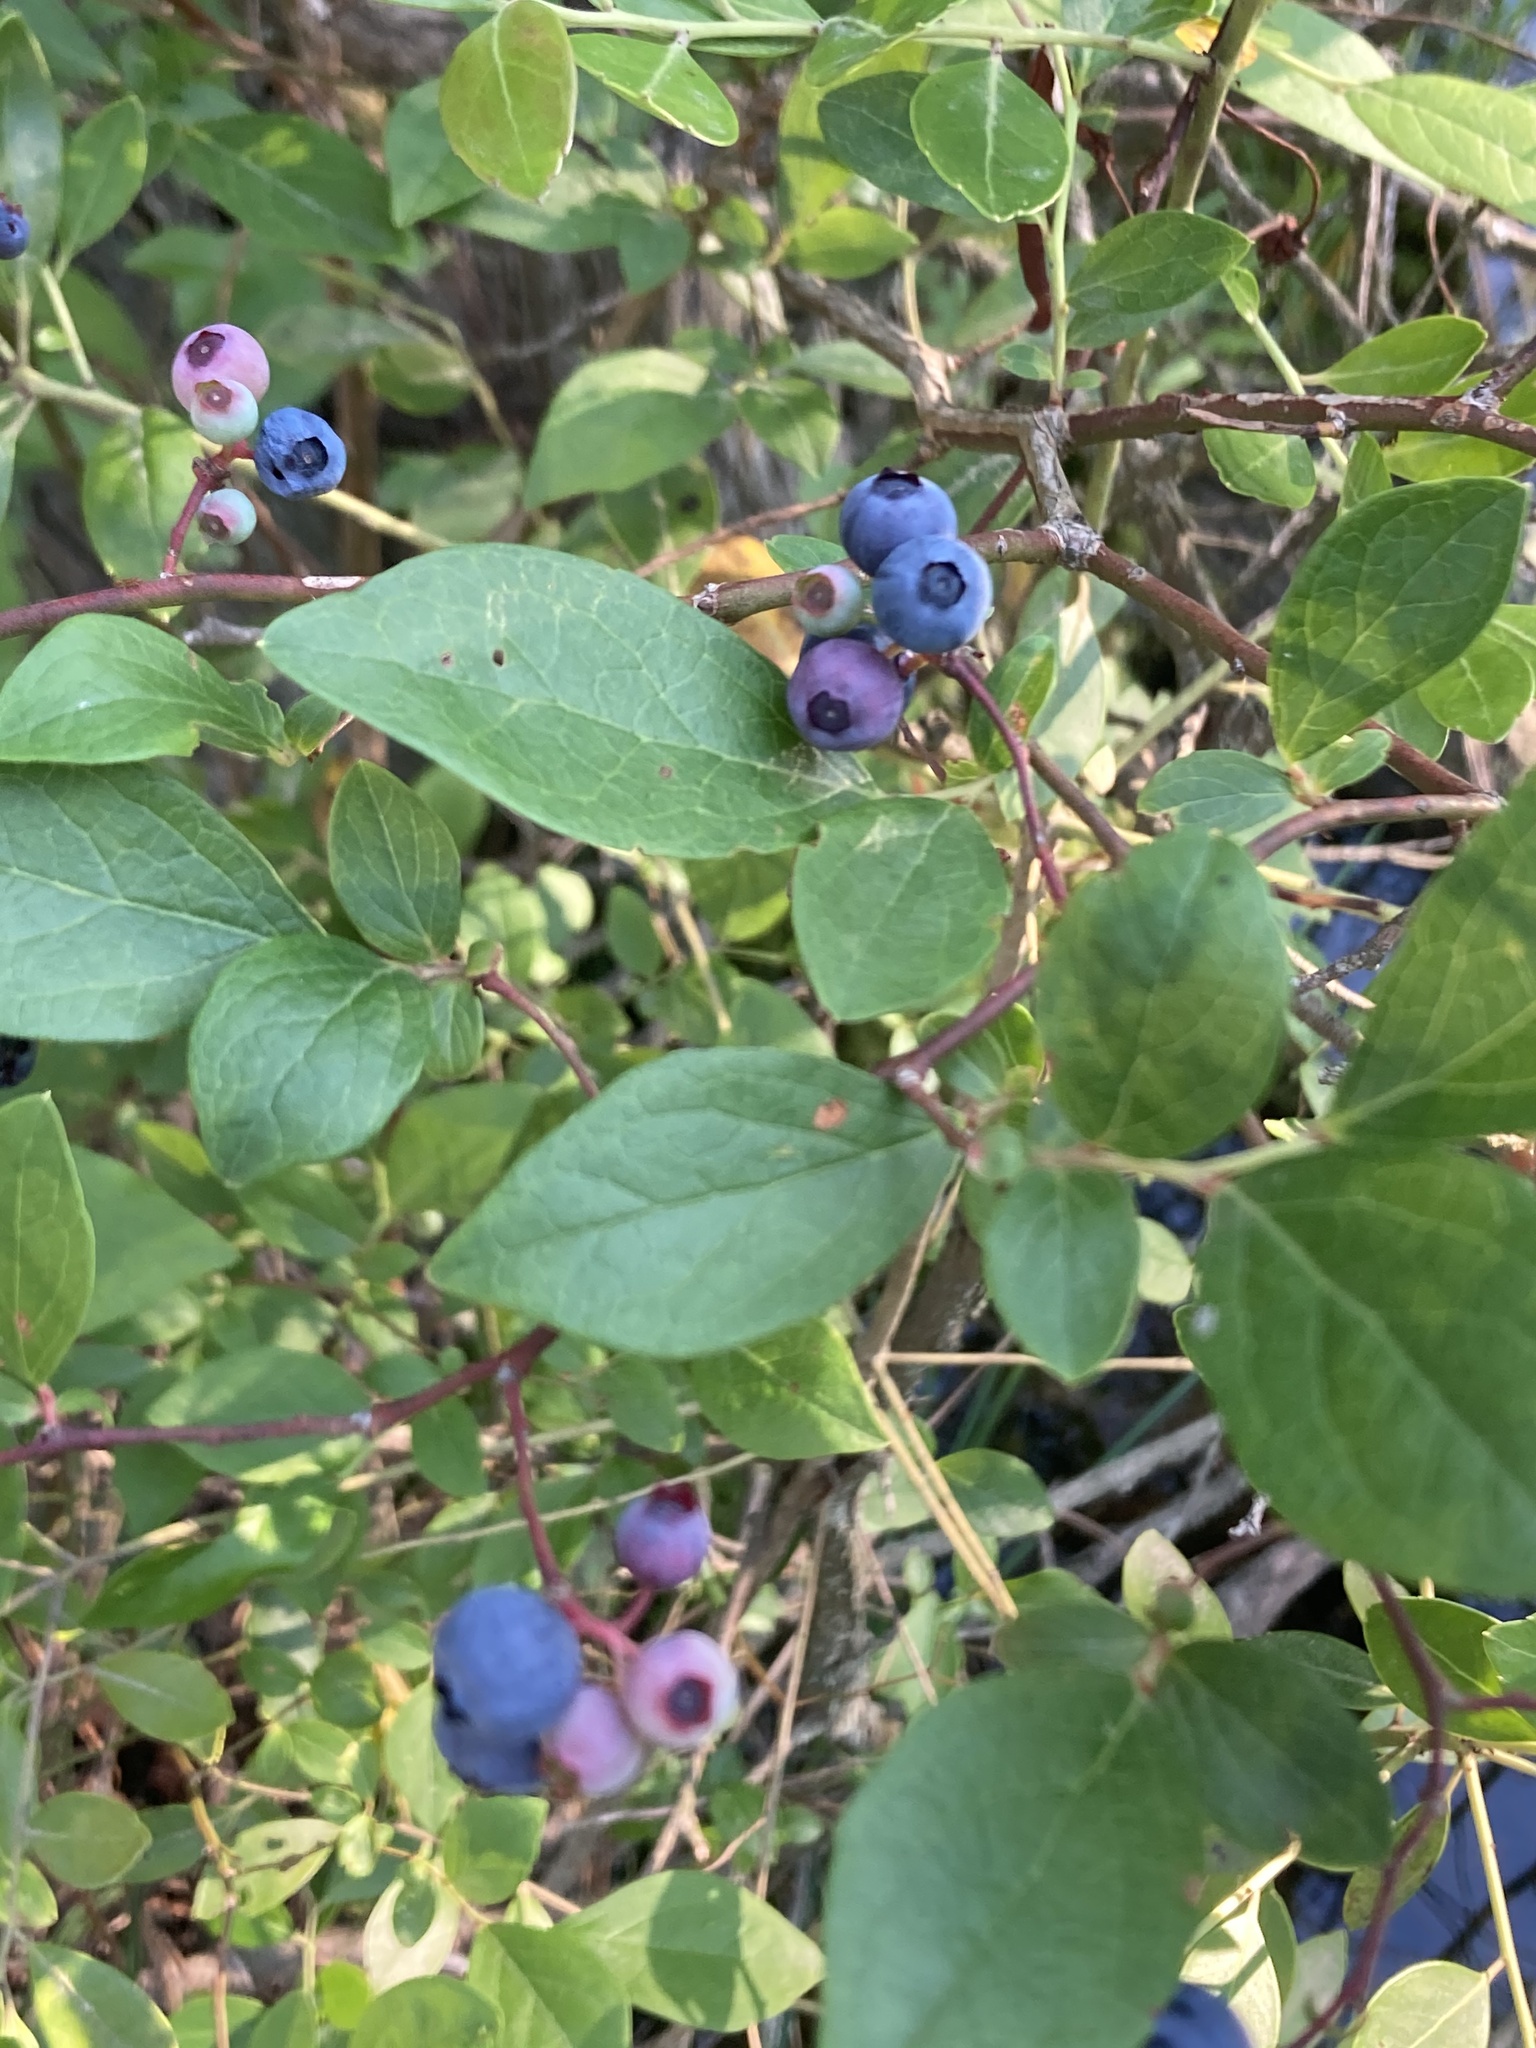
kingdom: Plantae
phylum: Tracheophyta
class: Magnoliopsida
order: Ericales
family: Ericaceae
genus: Vaccinium
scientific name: Vaccinium corymbosum
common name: Blueberry
